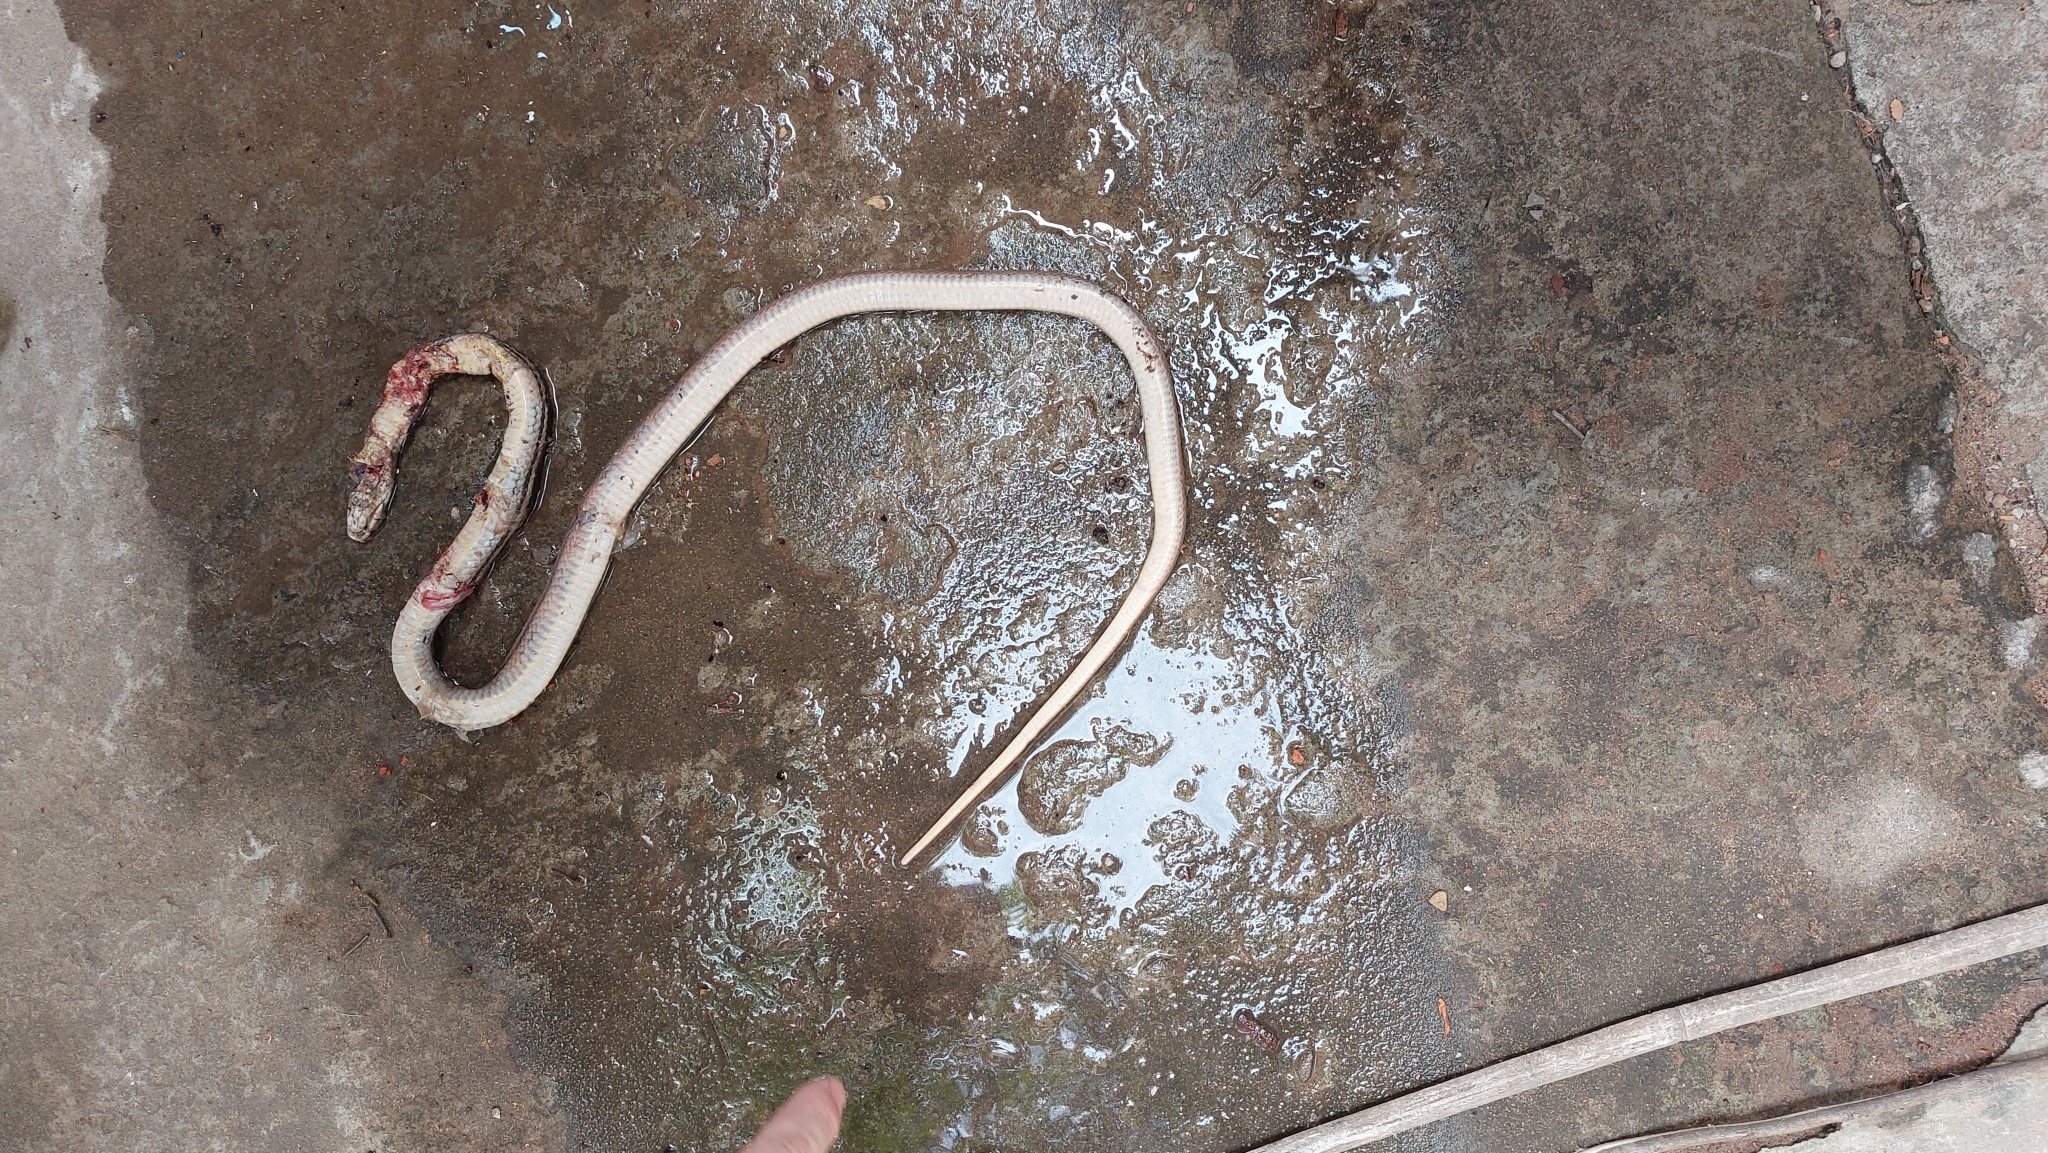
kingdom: Animalia
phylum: Chordata
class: Squamata
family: Colubridae
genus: Coelognathus
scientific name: Coelognathus radiatus
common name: Copperhead rat snake
